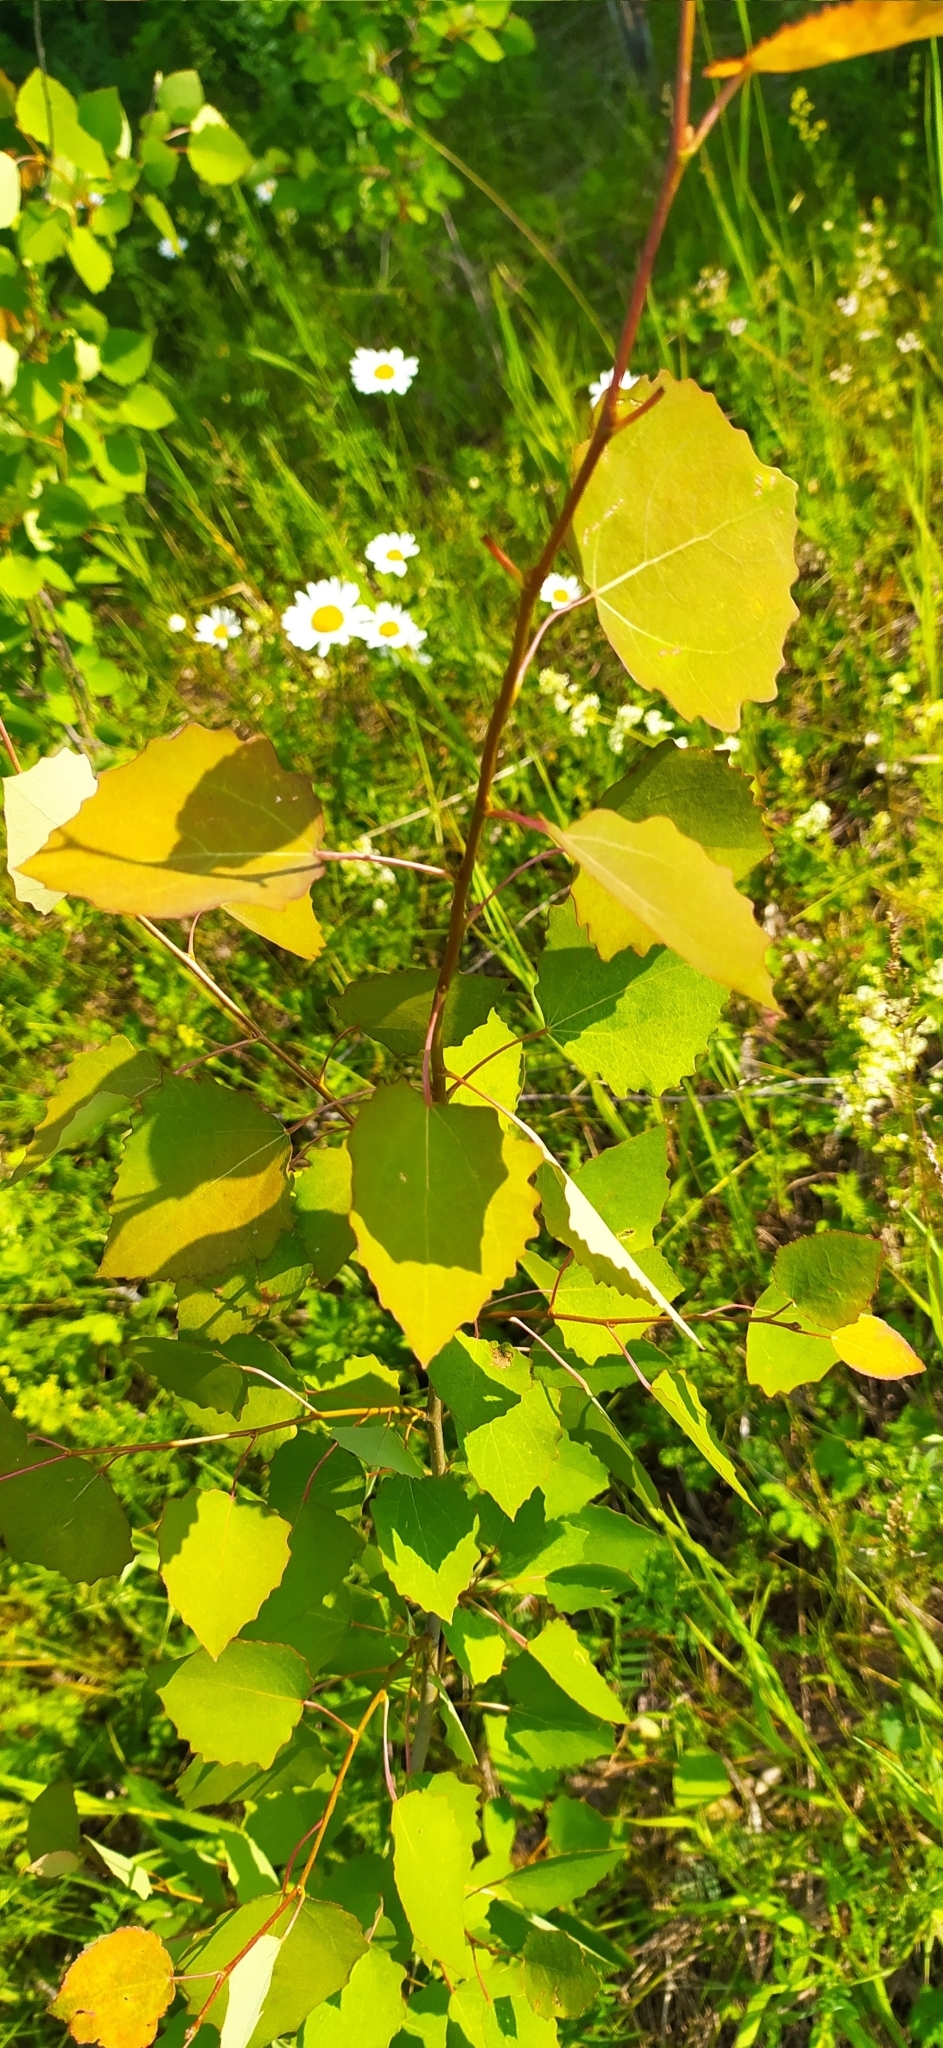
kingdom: Plantae
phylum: Tracheophyta
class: Magnoliopsida
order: Malpighiales
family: Salicaceae
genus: Populus
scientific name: Populus tremula
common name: European aspen
